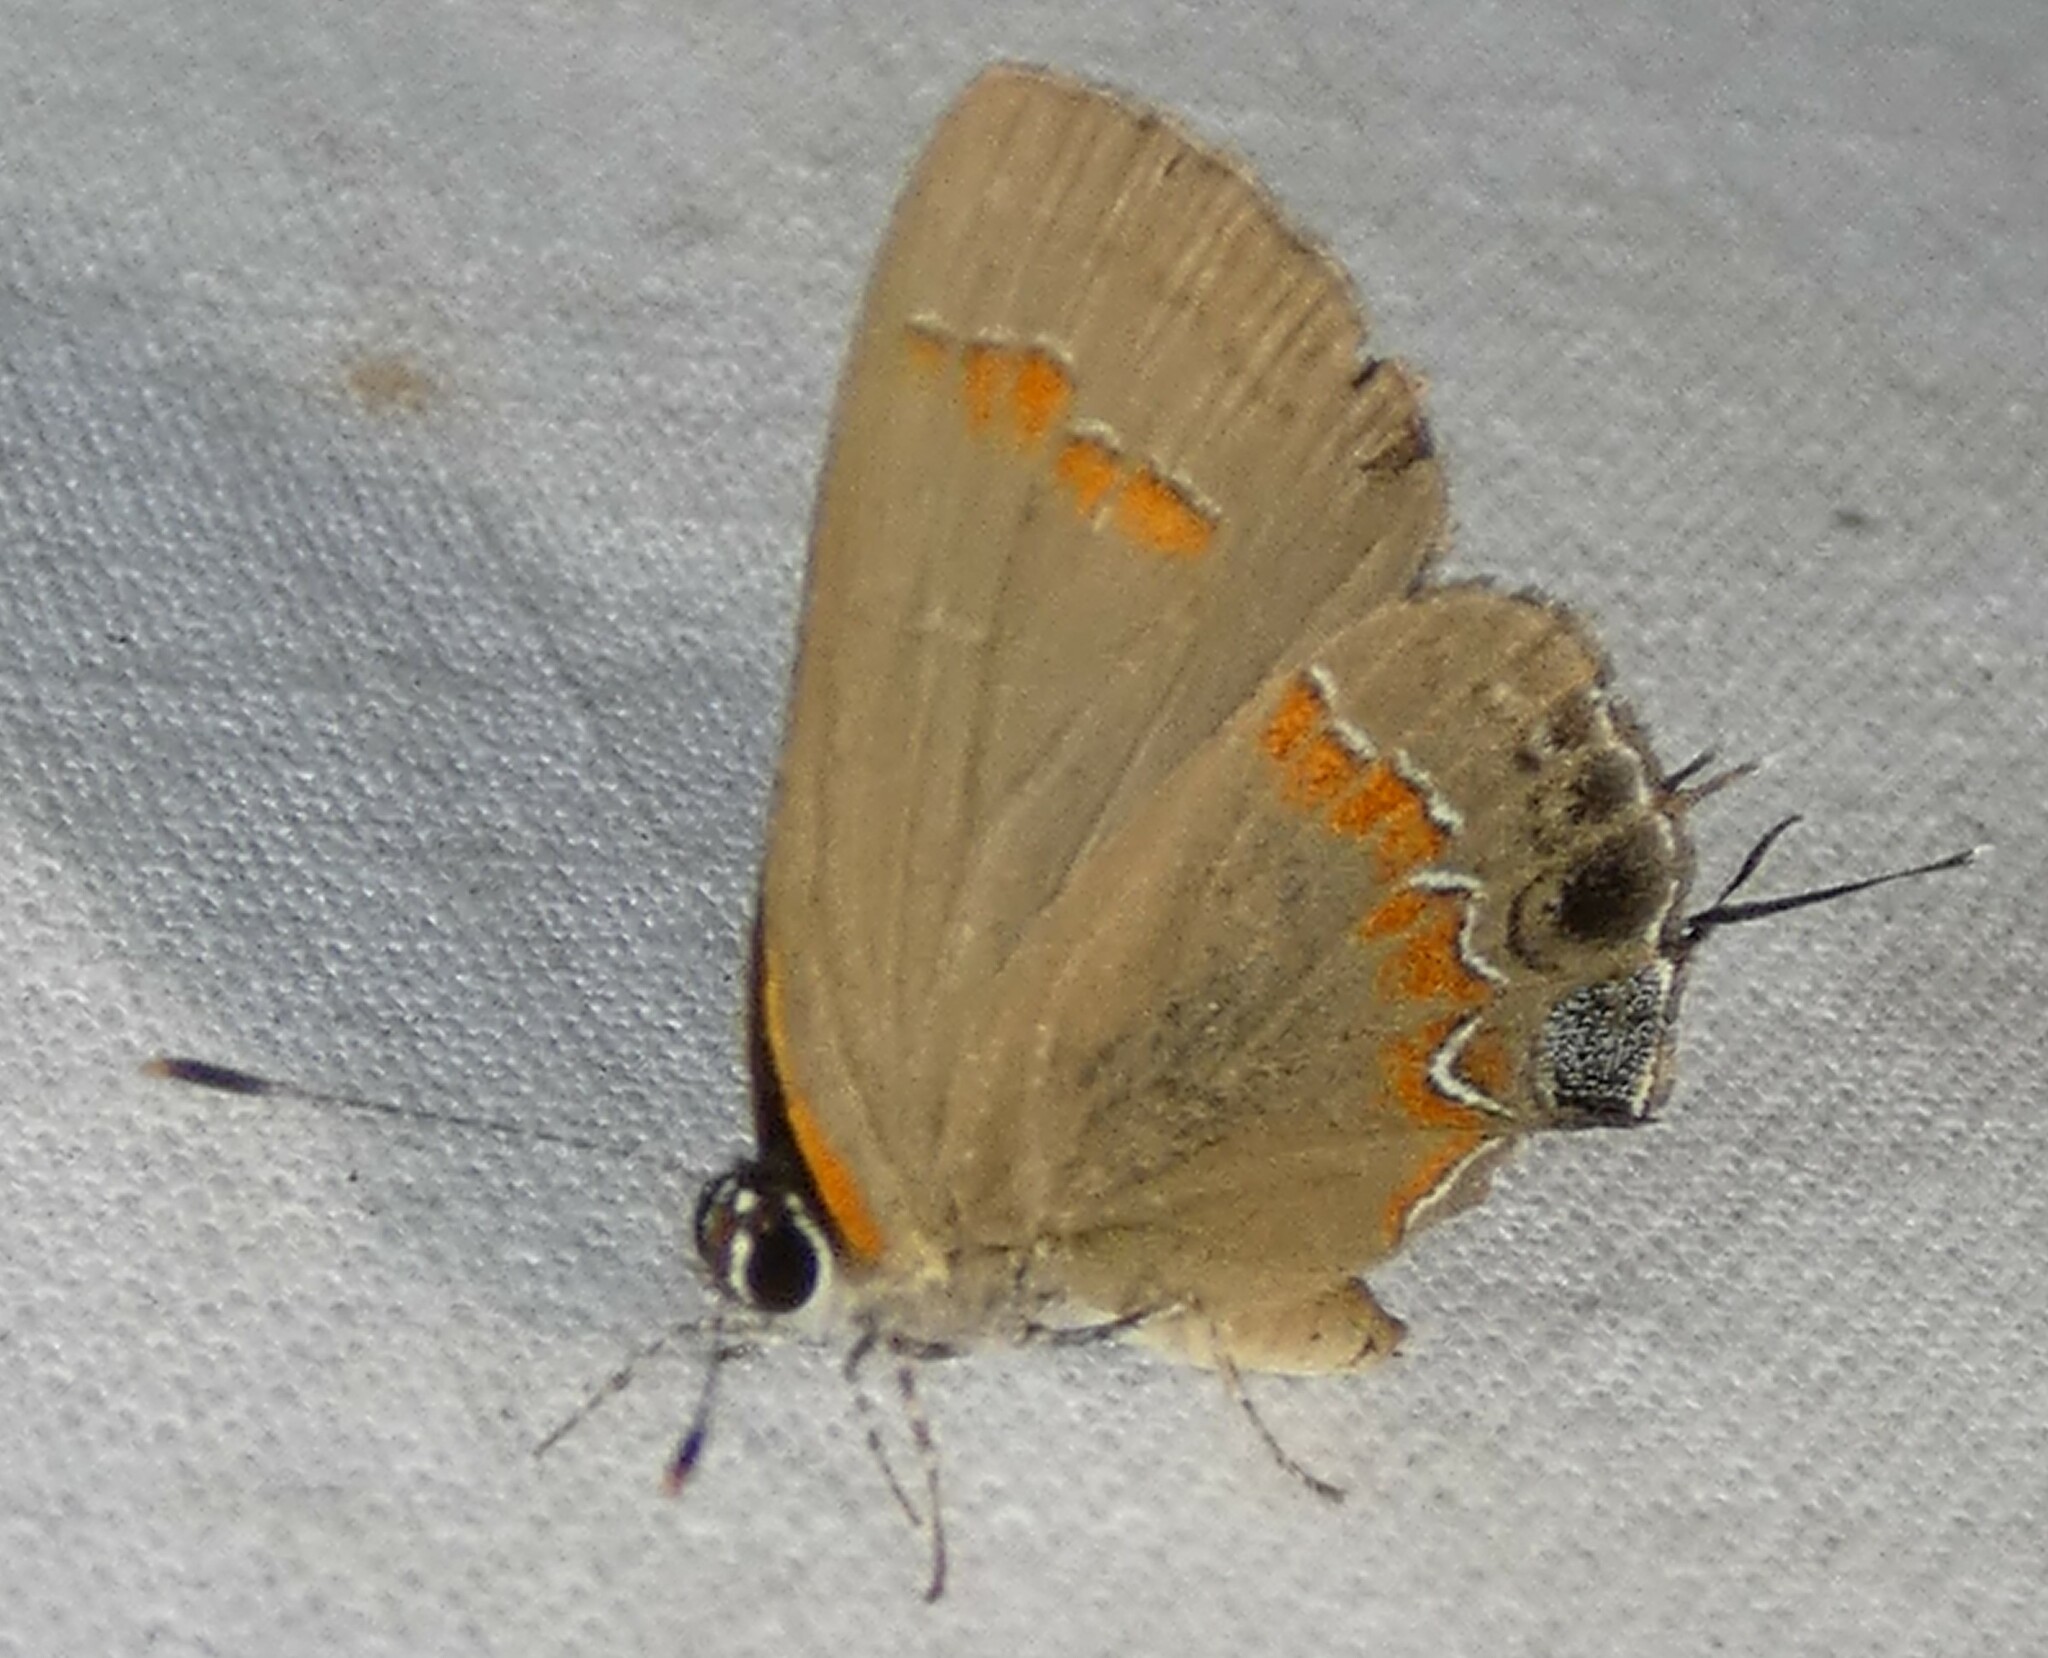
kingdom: Animalia
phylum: Arthropoda
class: Insecta
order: Lepidoptera
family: Lycaenidae
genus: Calycopis
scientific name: Calycopis cecrops
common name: Red-banded hairstreak
